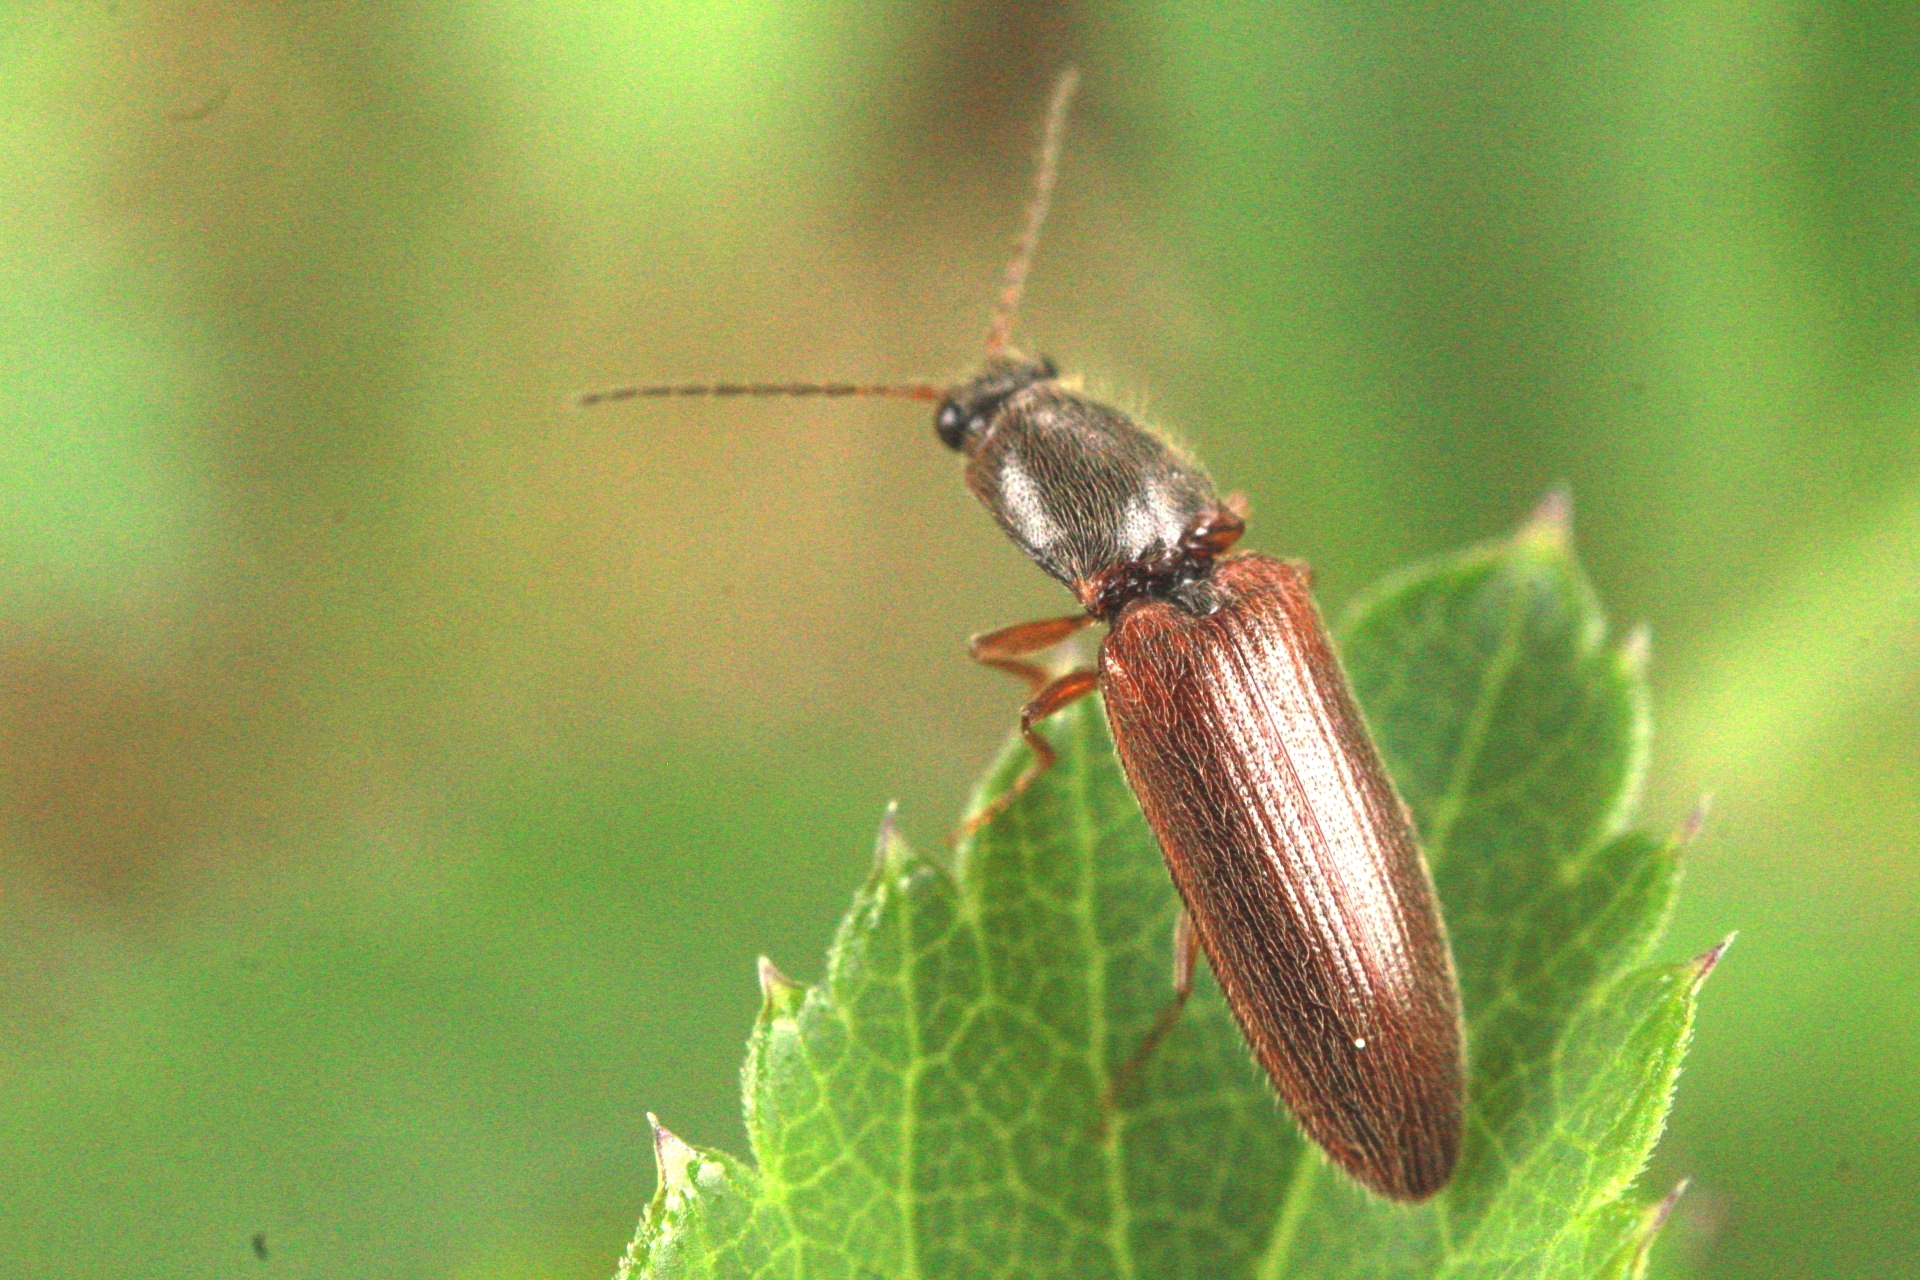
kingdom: Animalia
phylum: Arthropoda
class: Insecta
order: Coleoptera
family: Elateridae
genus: Athous
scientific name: Athous subfuscus
